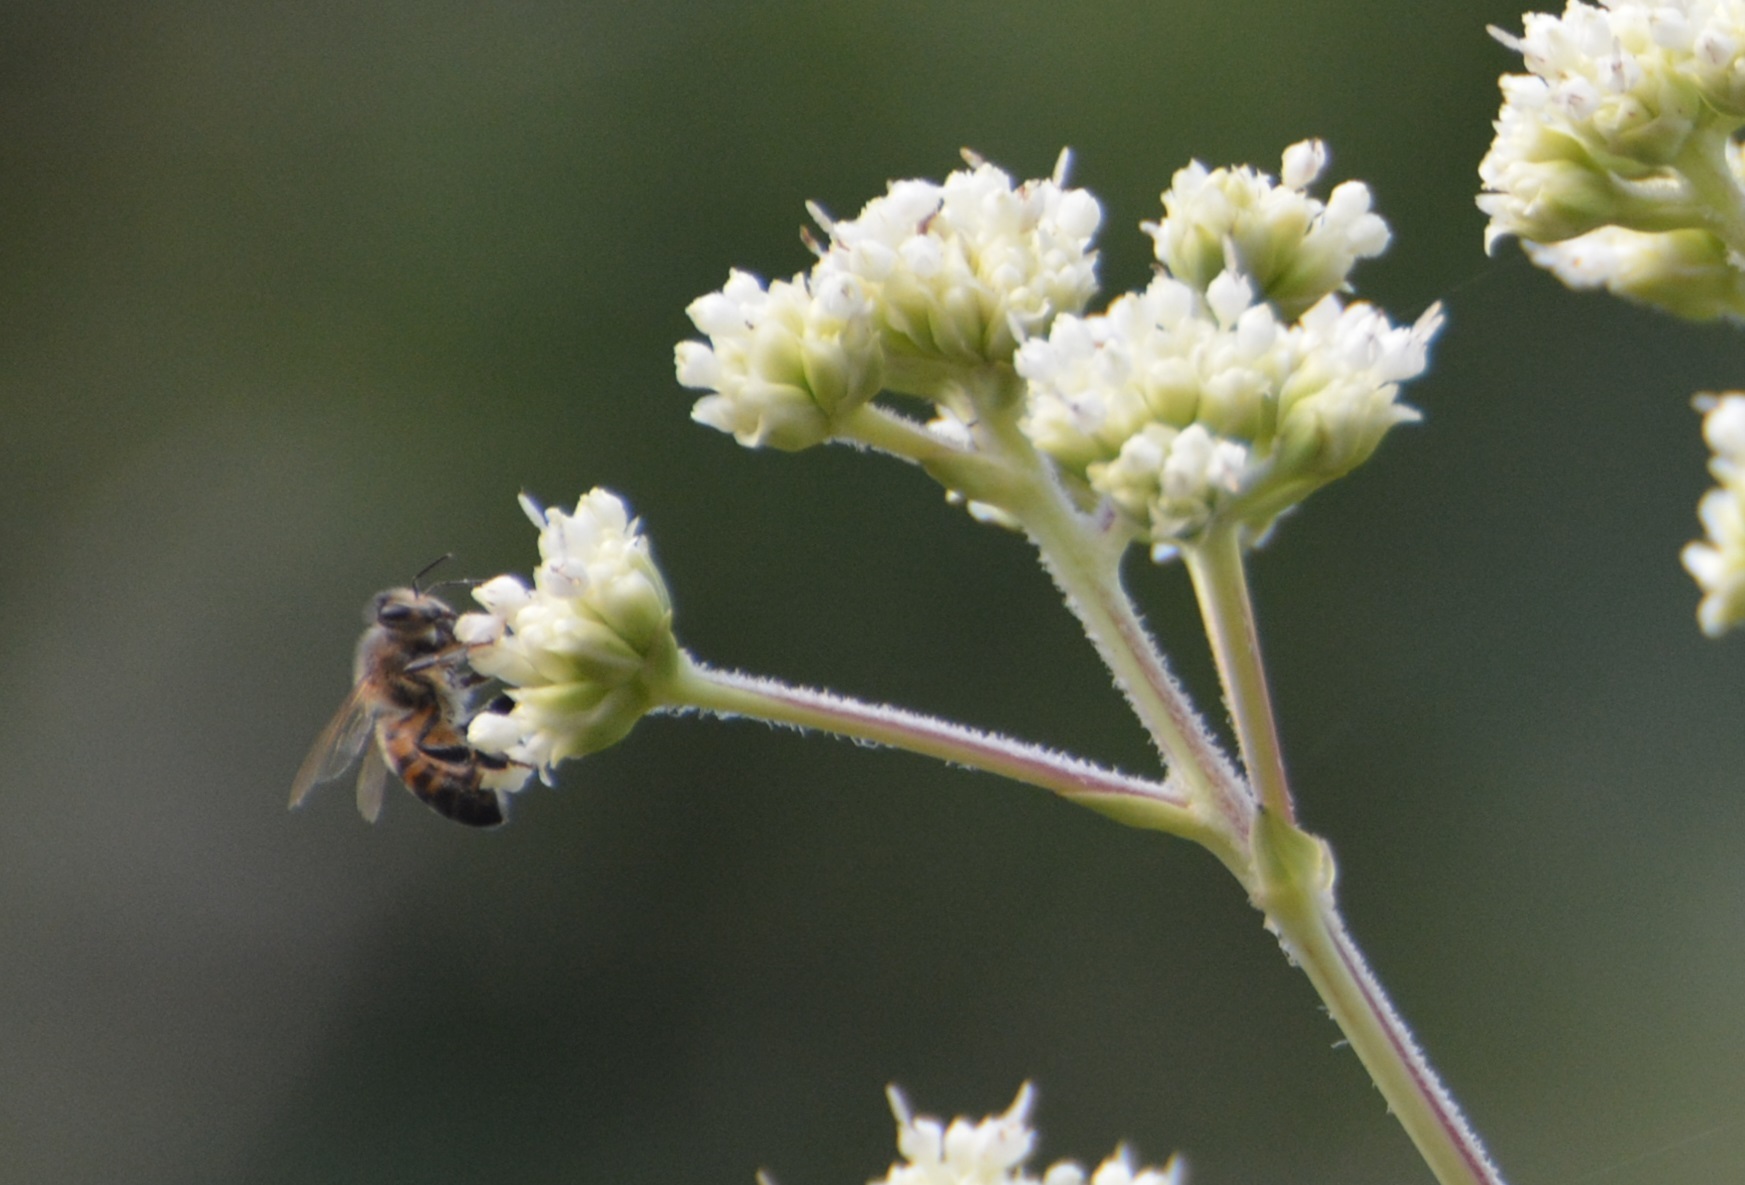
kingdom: Animalia
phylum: Arthropoda
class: Insecta
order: Hymenoptera
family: Apidae
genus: Apis
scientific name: Apis mellifera
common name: Honey bee
